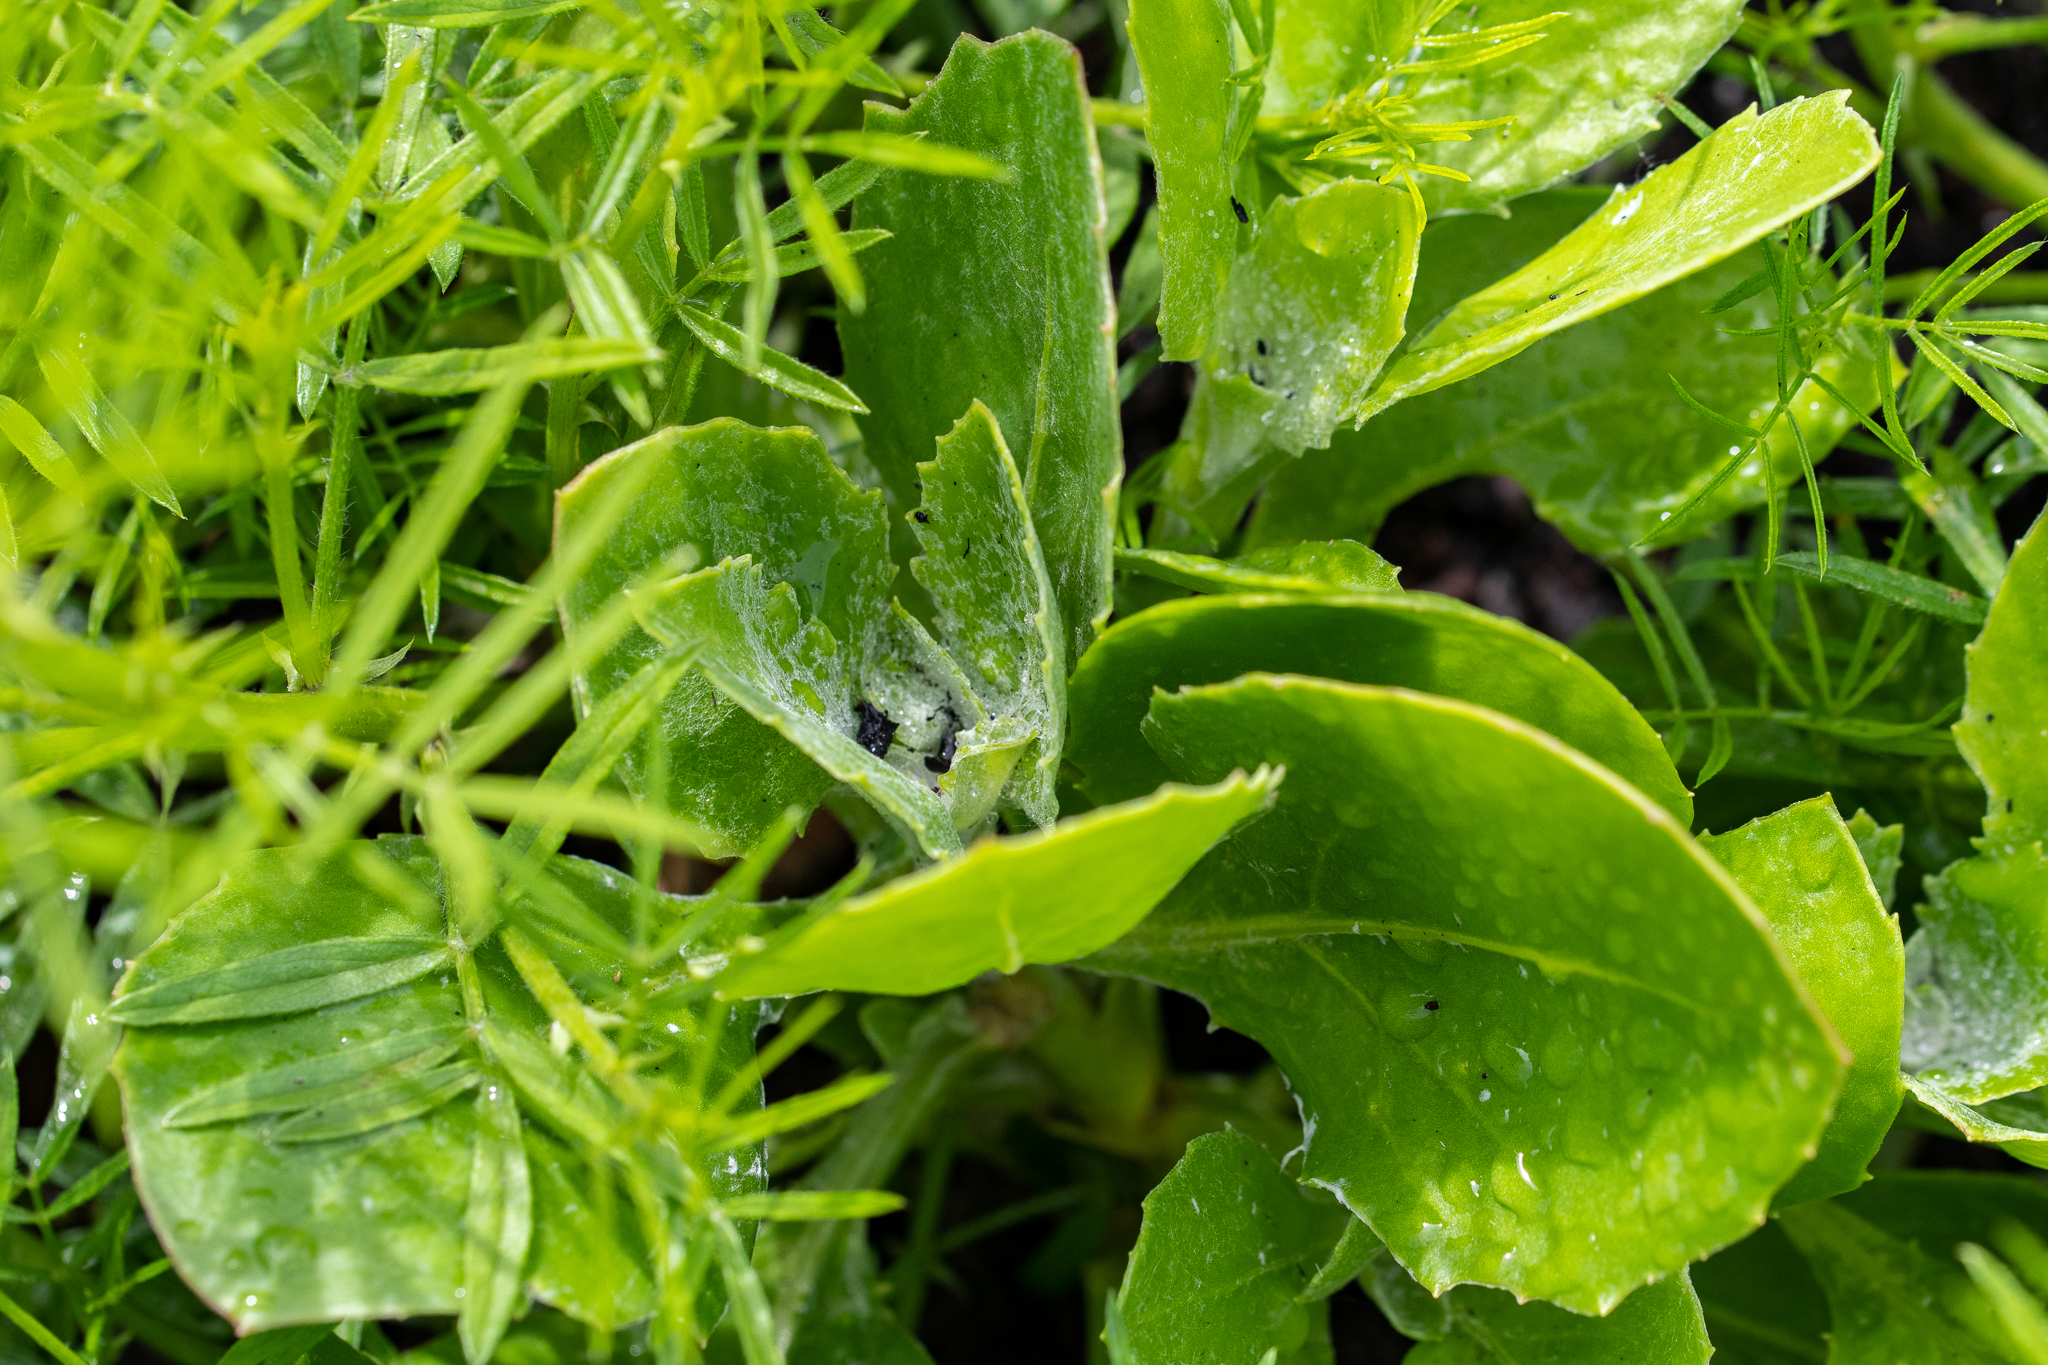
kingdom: Plantae
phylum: Tracheophyta
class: Magnoliopsida
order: Asterales
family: Asteraceae
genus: Osteospermum
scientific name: Osteospermum moniliferum
